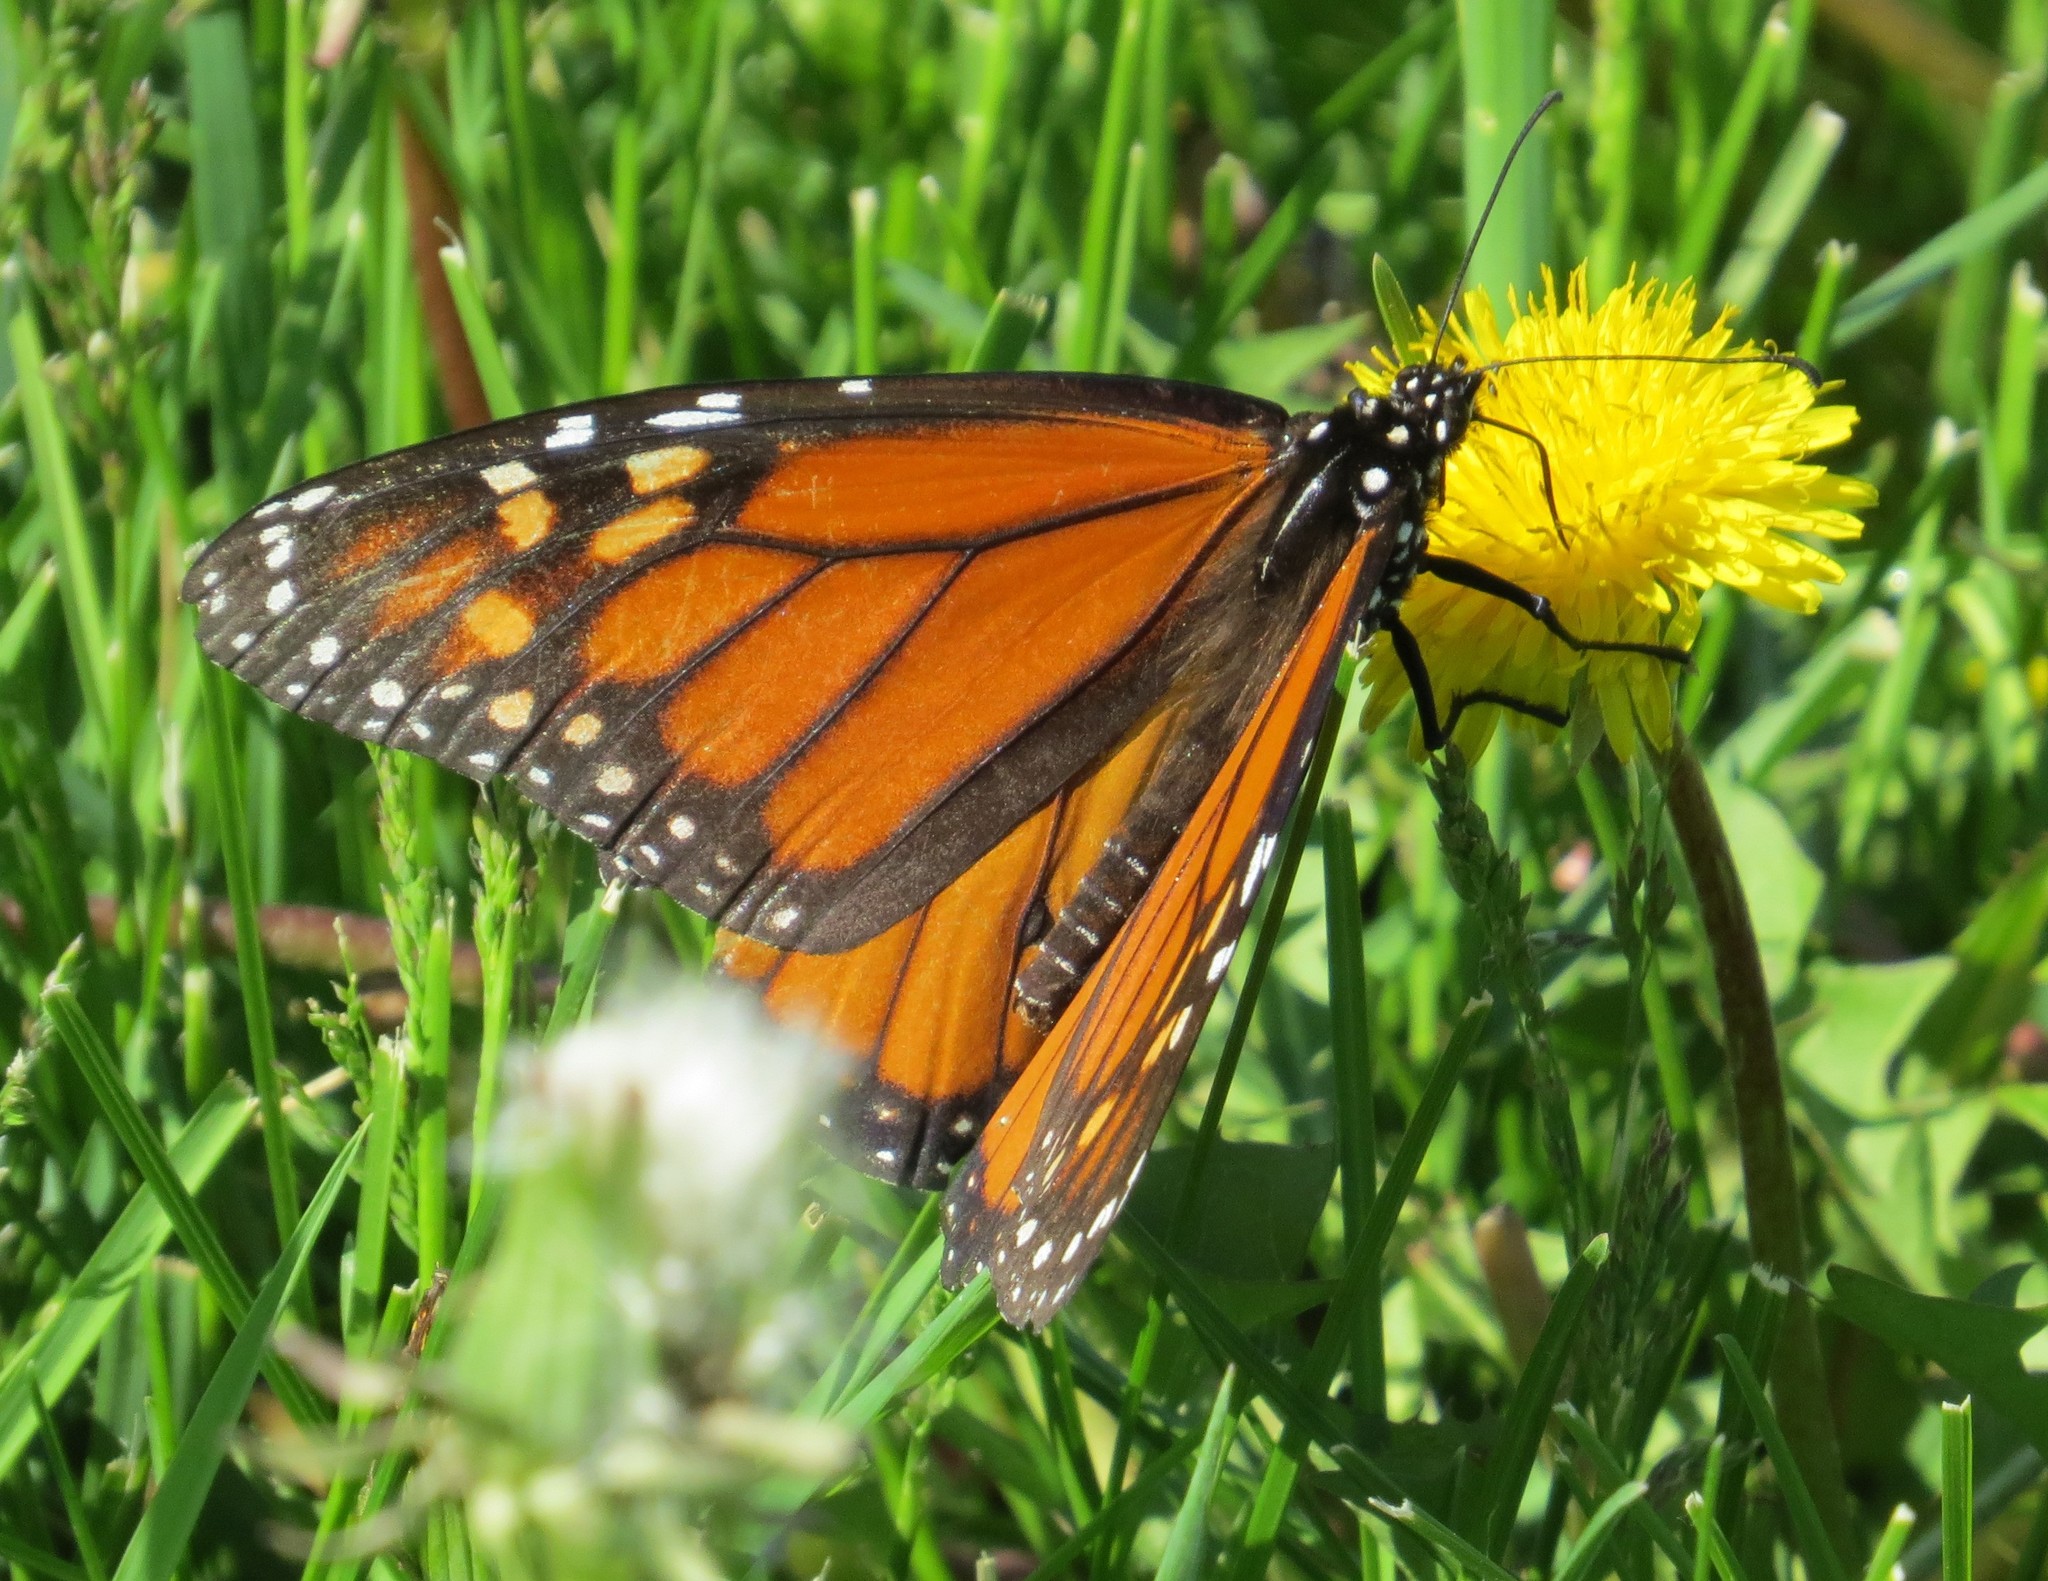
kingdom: Animalia
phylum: Arthropoda
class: Insecta
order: Lepidoptera
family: Nymphalidae
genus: Danaus
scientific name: Danaus plexippus
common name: Monarch
